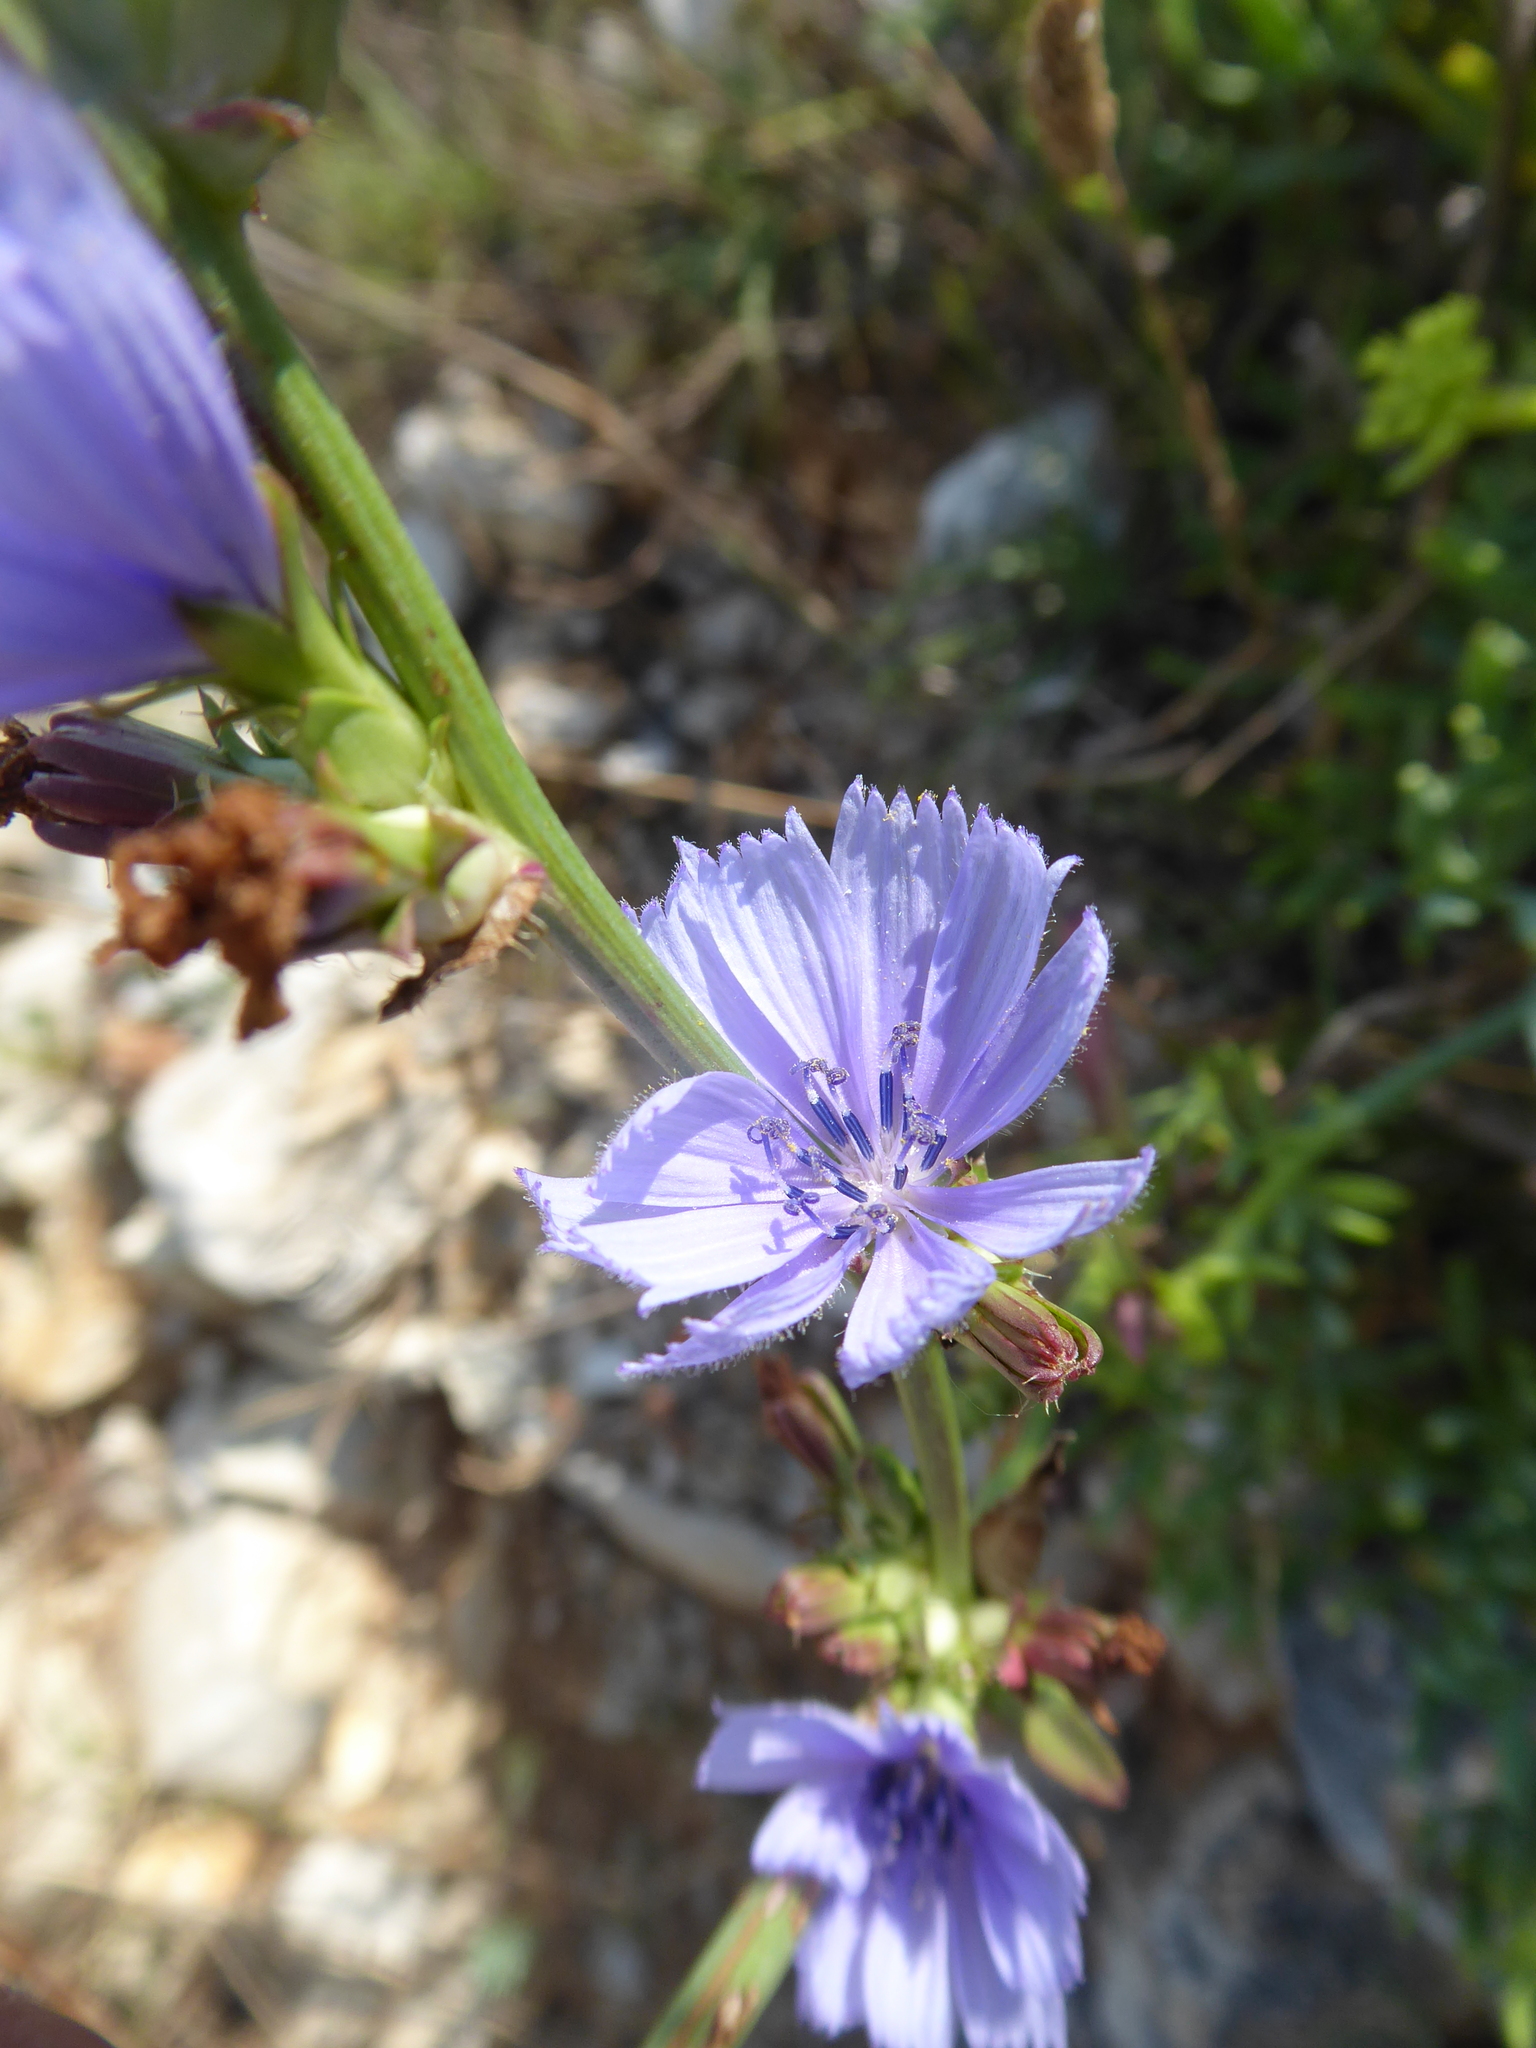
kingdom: Plantae
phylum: Tracheophyta
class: Magnoliopsida
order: Asterales
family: Asteraceae
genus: Cichorium
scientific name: Cichorium intybus
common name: Chicory
